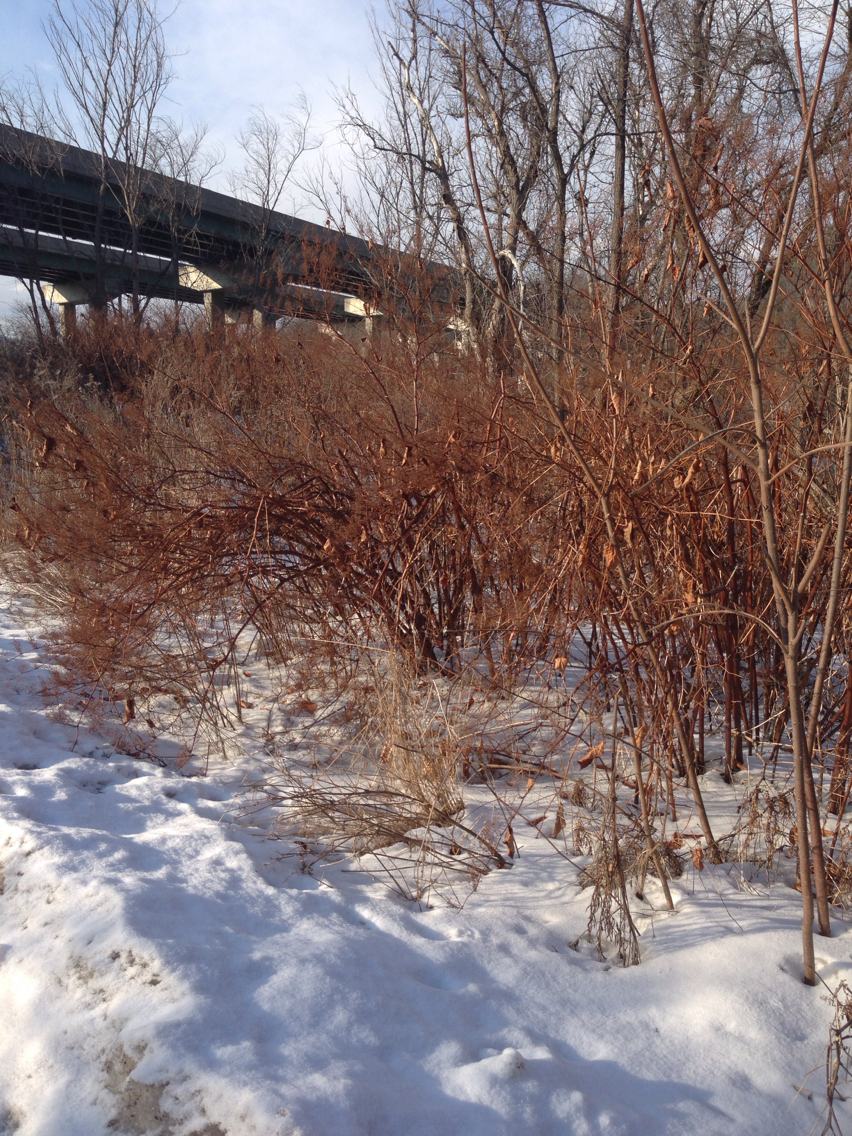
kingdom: Plantae
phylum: Tracheophyta
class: Magnoliopsida
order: Caryophyllales
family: Polygonaceae
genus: Reynoutria
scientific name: Reynoutria japonica
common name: Japanese knotweed
